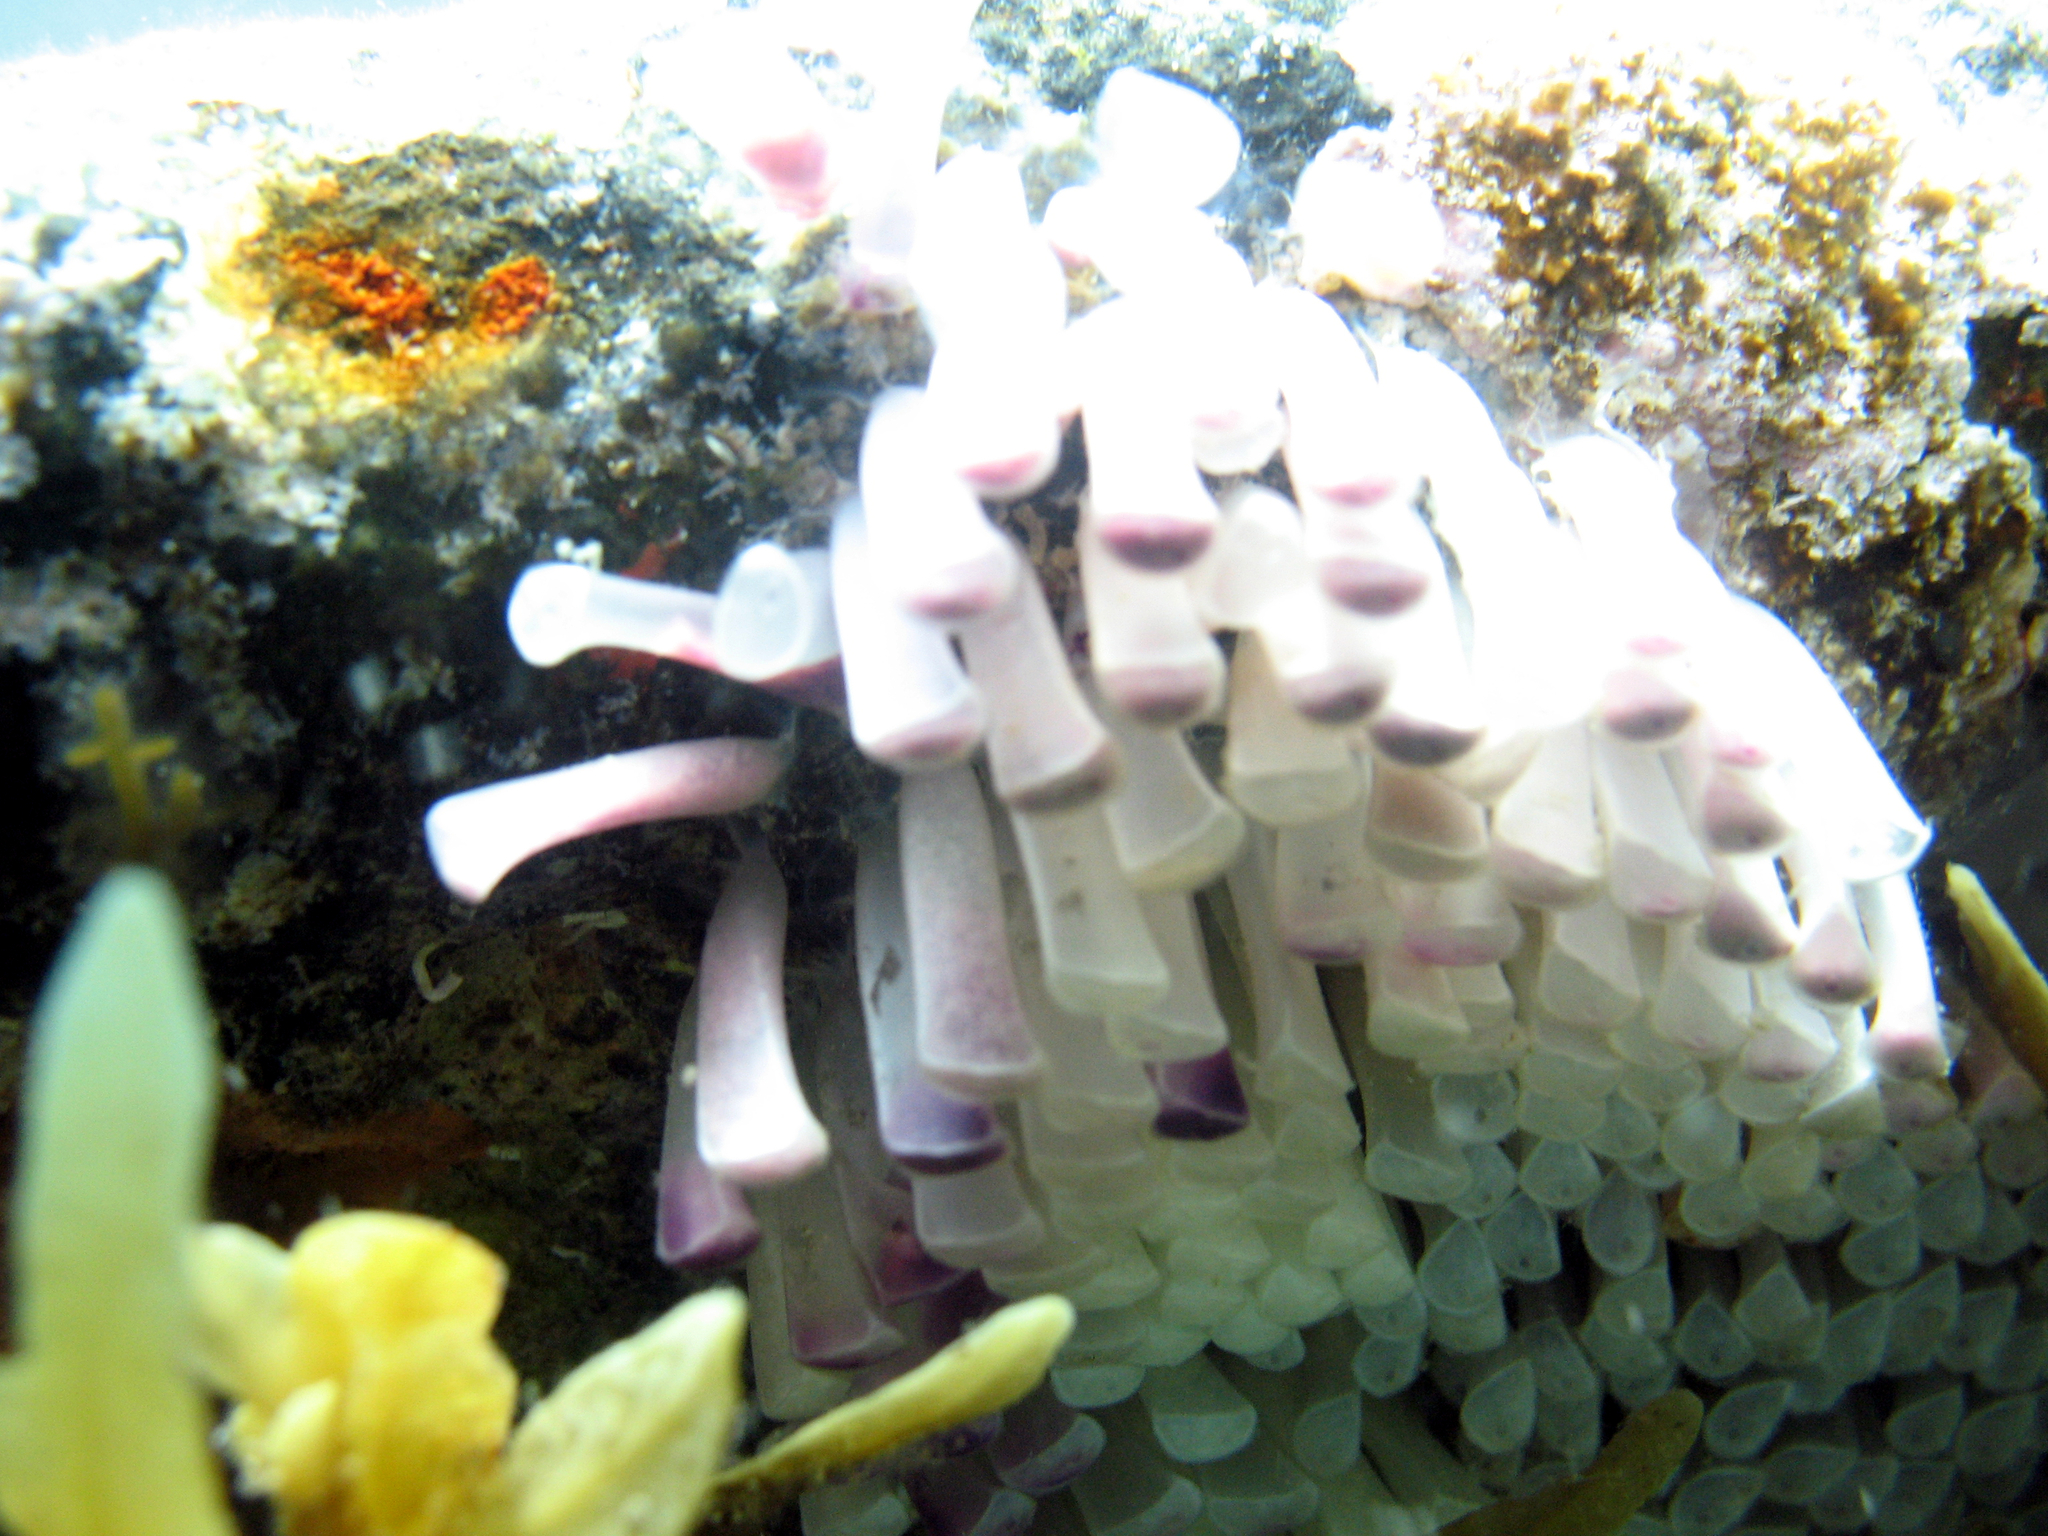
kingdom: Animalia
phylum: Mollusca
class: Gastropoda
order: Neogastropoda
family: Muricidae
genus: Stramonita
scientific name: Stramonita haemastoma
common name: Florida dog winkle
